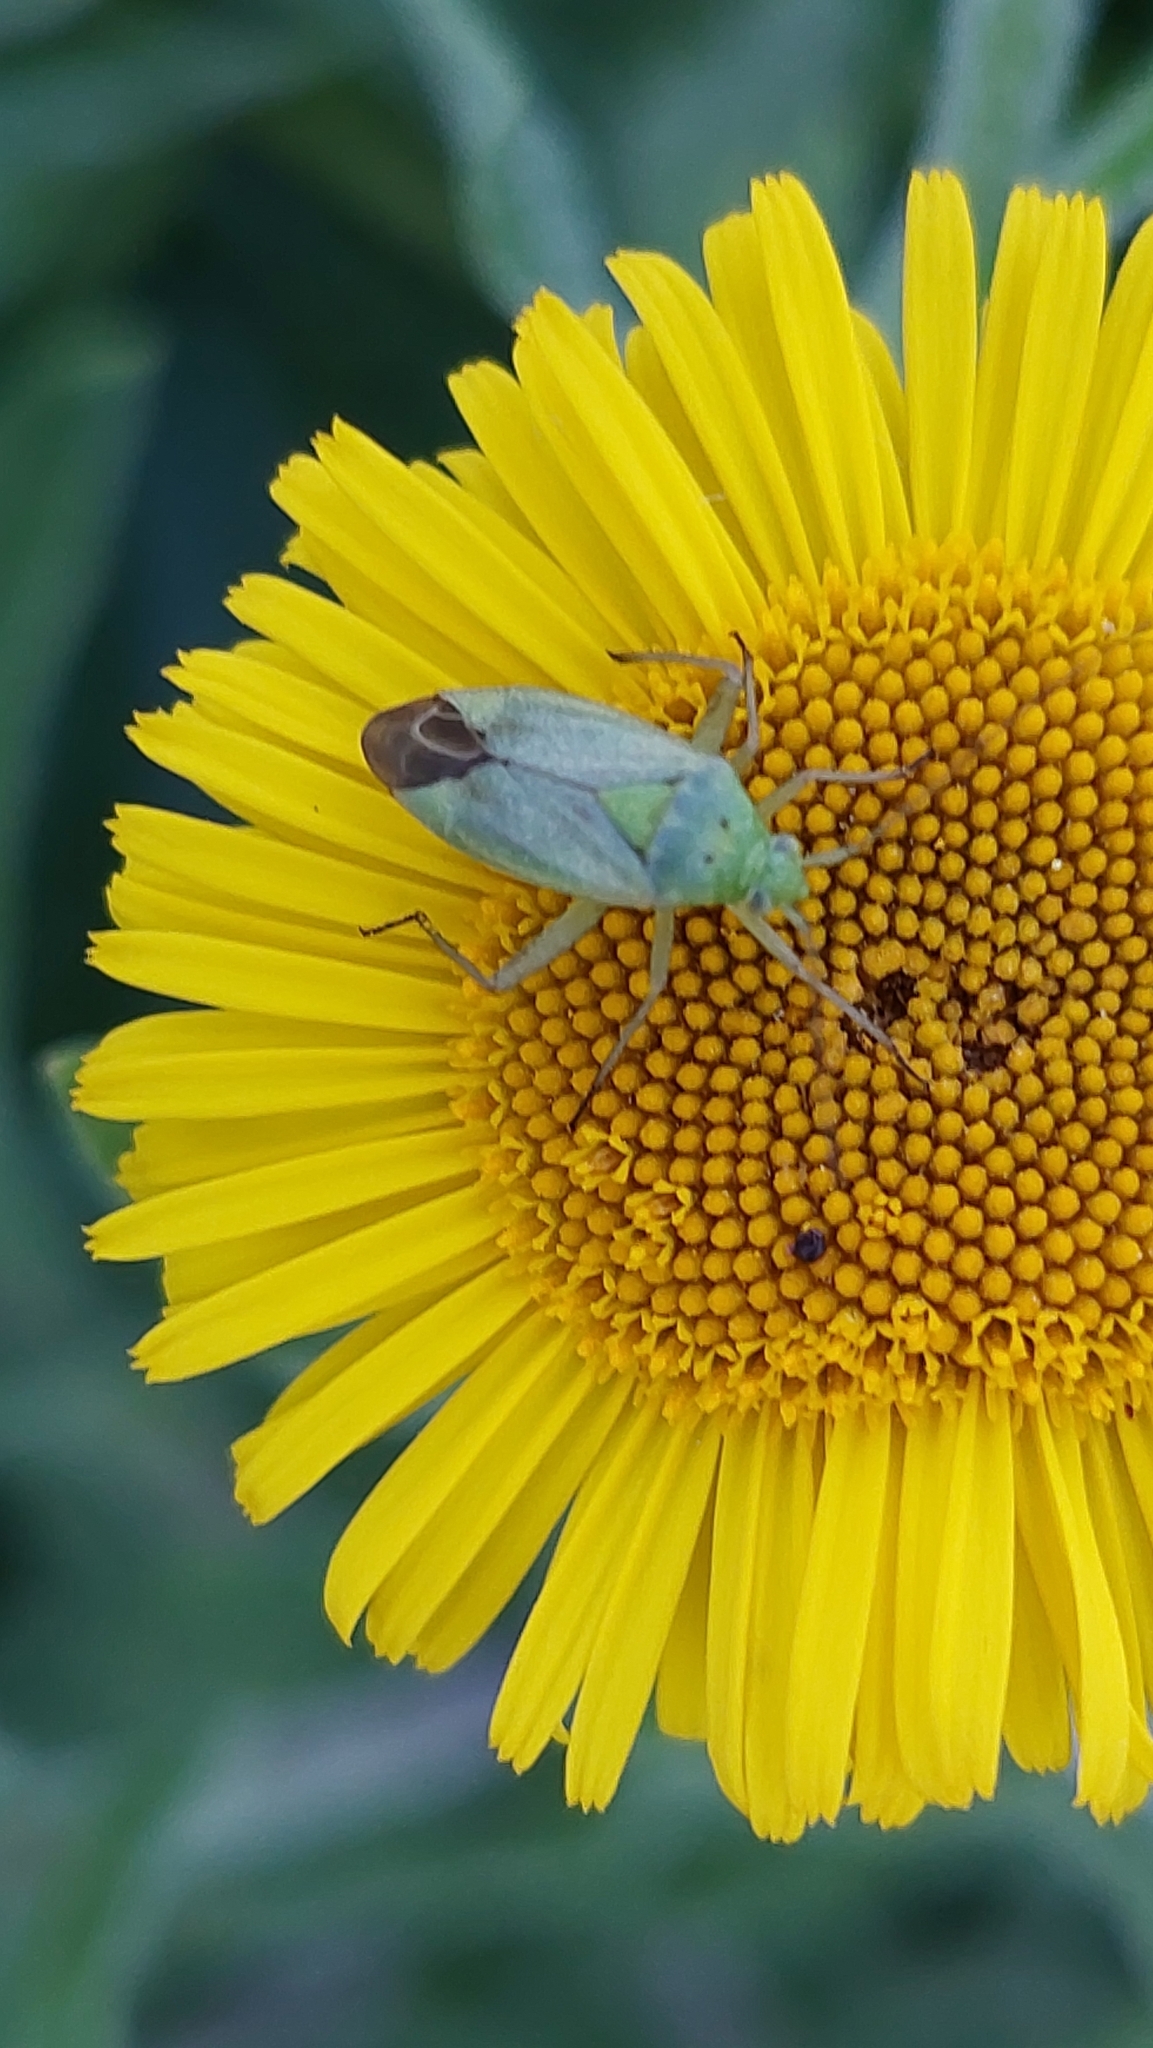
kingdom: Animalia
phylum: Arthropoda
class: Insecta
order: Hemiptera
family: Miridae
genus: Closterotomus
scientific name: Closterotomus norvegicus
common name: Plant bug
